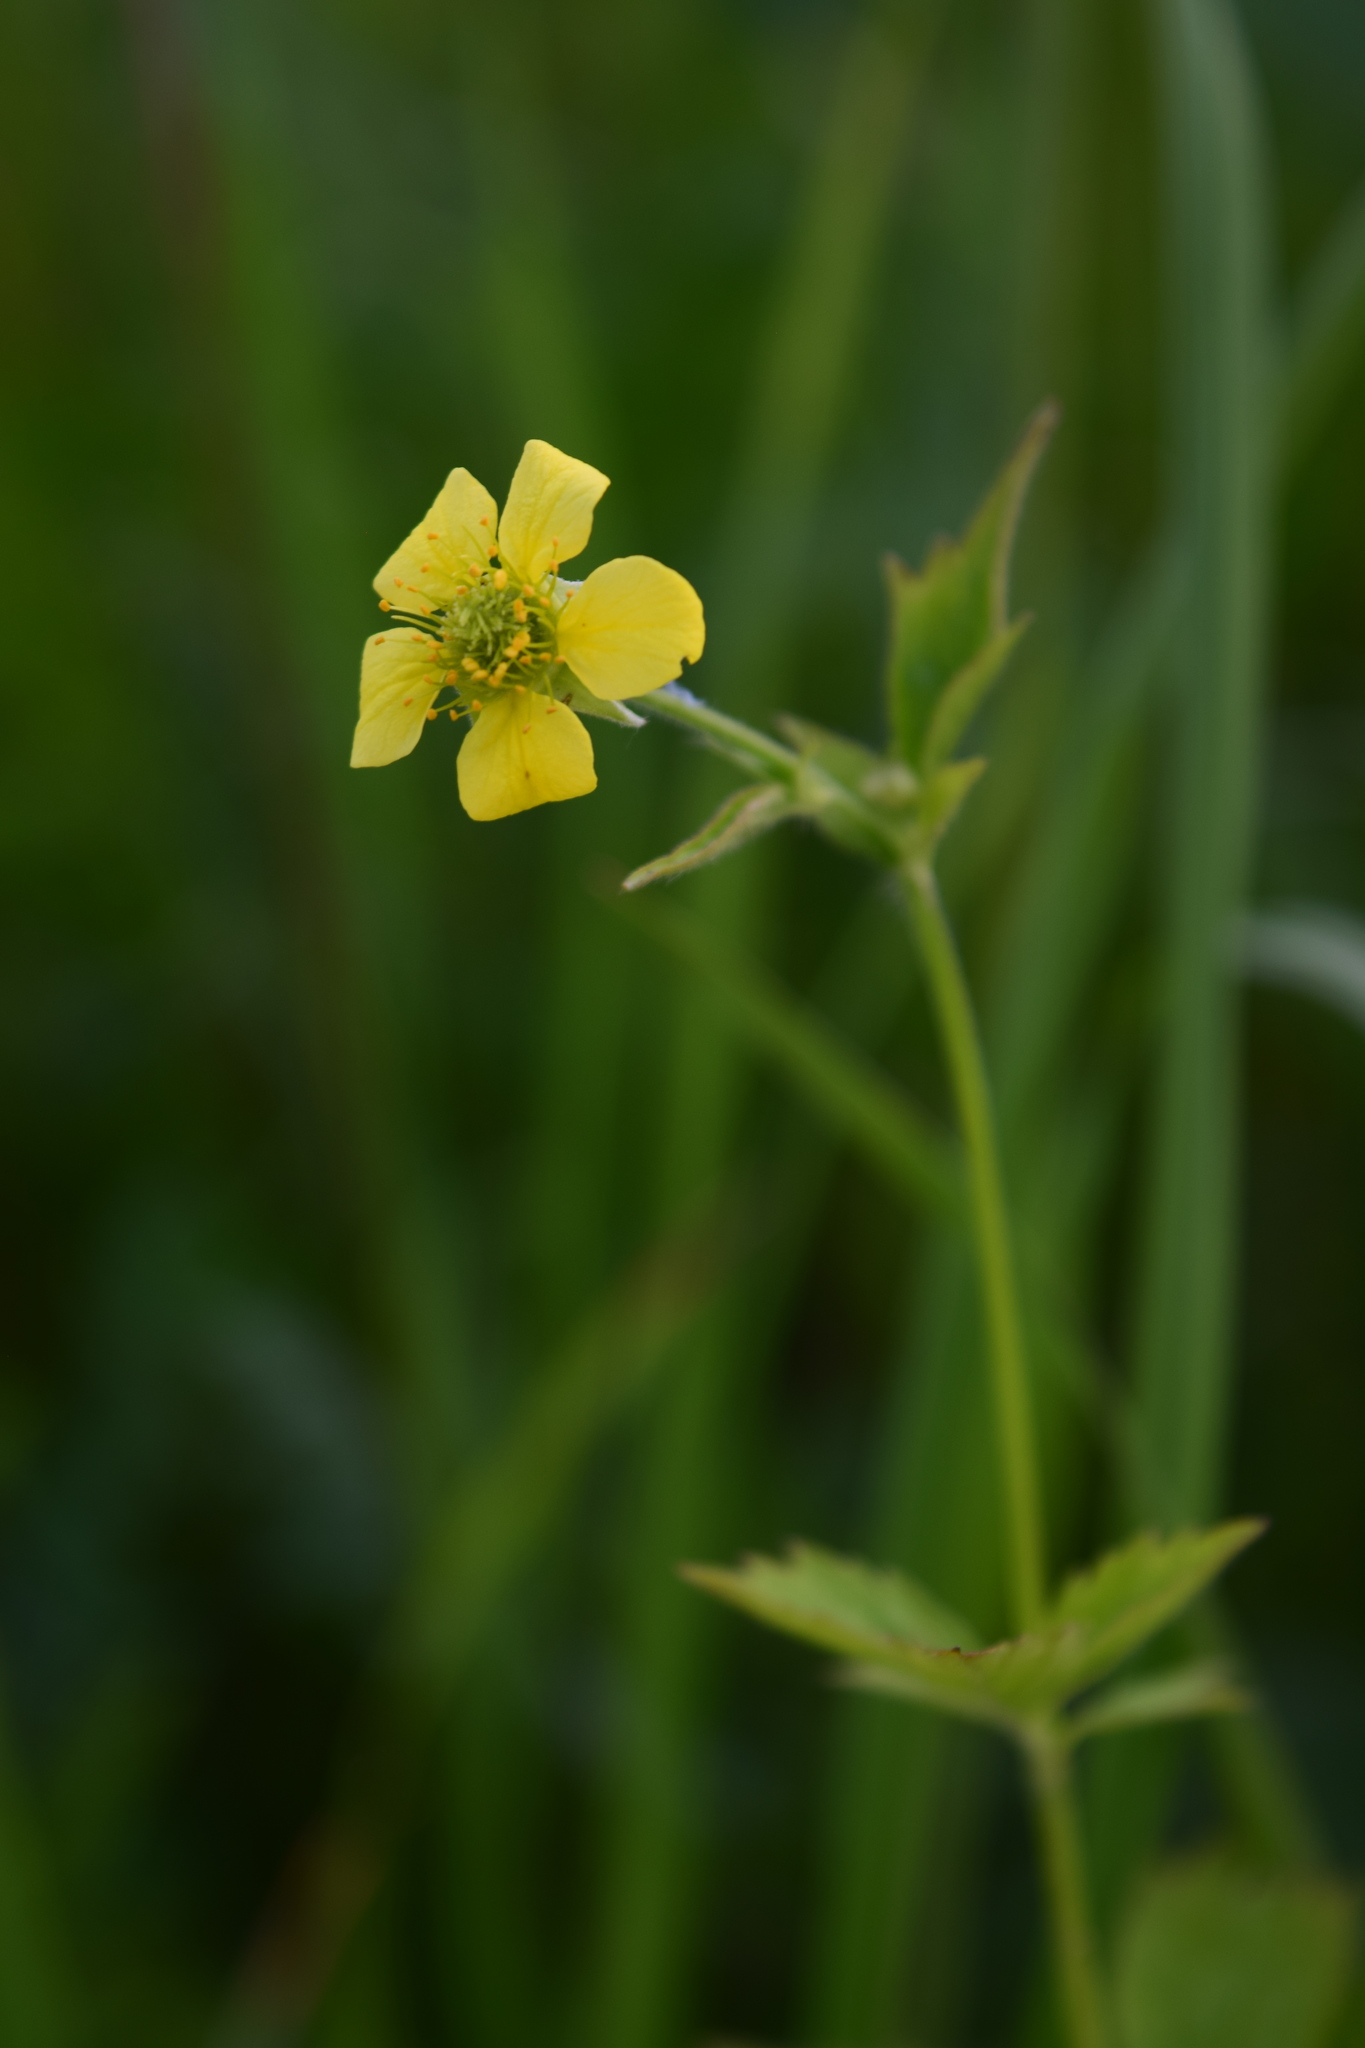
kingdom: Plantae
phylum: Tracheophyta
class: Magnoliopsida
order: Rosales
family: Rosaceae
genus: Geum
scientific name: Geum urbanum
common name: Wood avens
